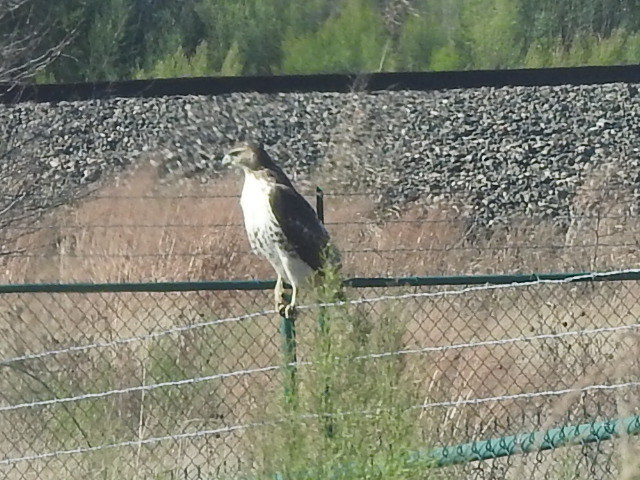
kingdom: Animalia
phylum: Chordata
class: Aves
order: Accipitriformes
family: Accipitridae
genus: Buteo
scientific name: Buteo jamaicensis
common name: Red-tailed hawk
